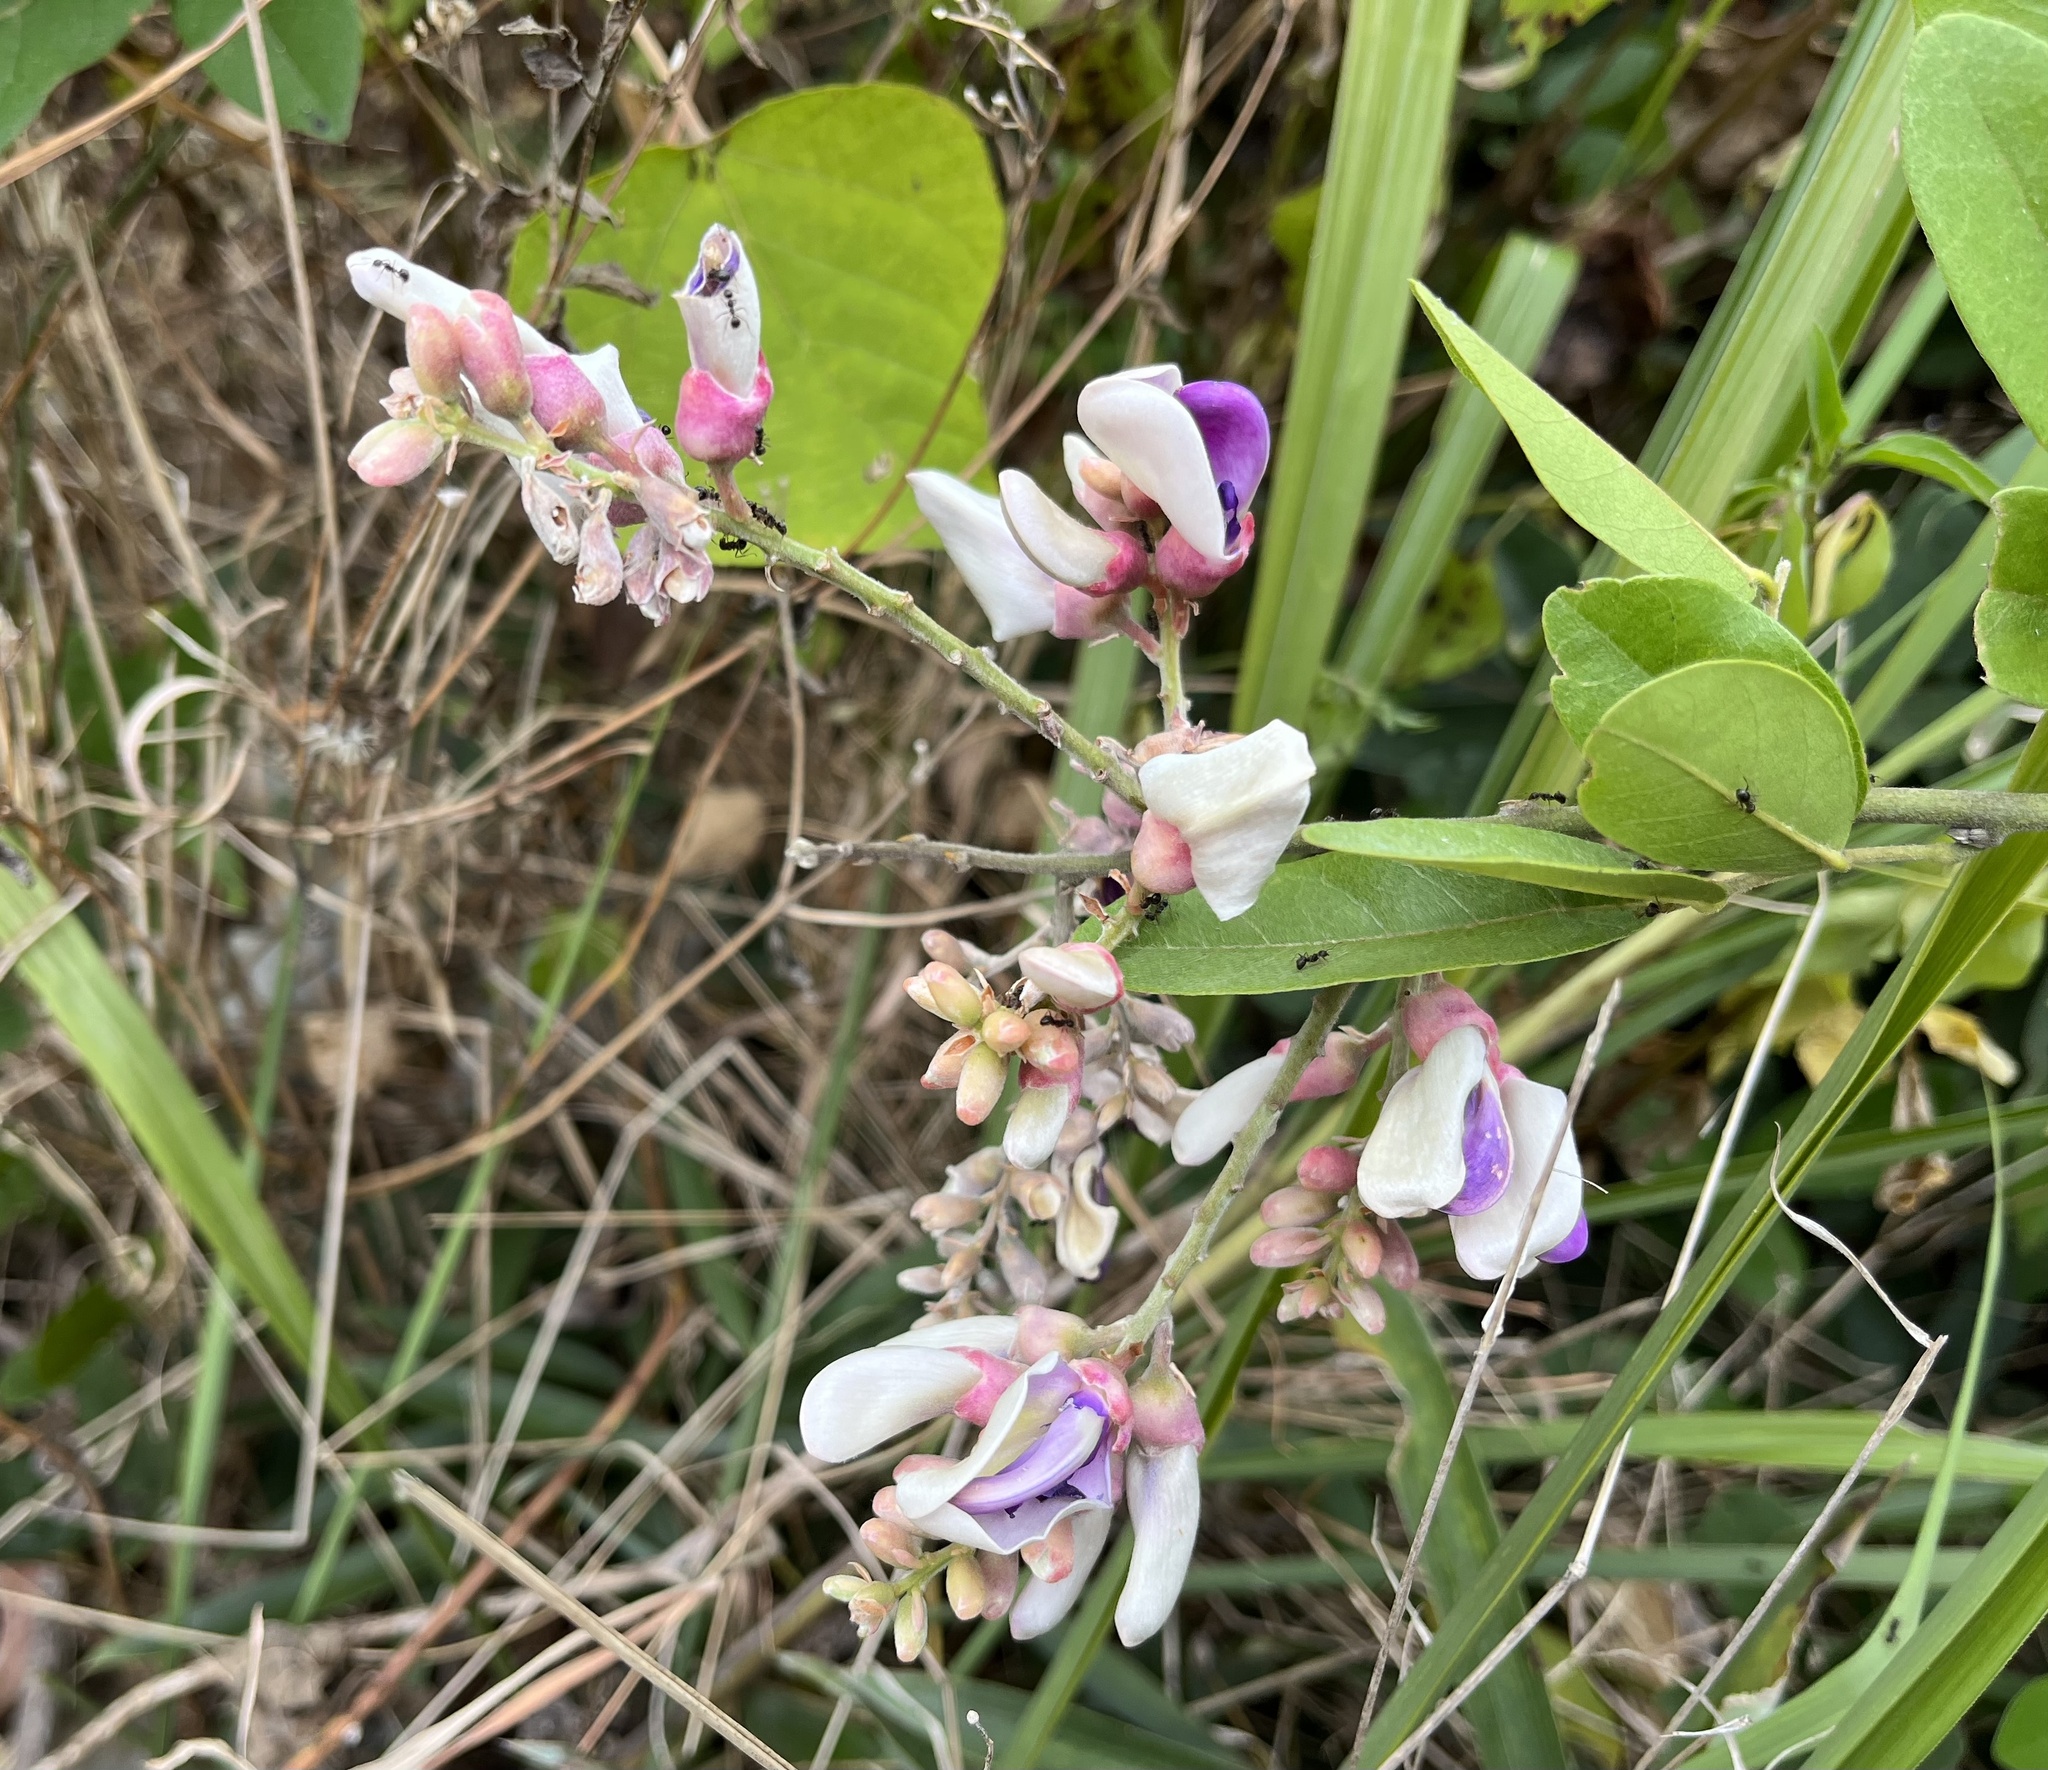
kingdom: Plantae
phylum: Tracheophyta
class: Magnoliopsida
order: Fabales
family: Fabaceae
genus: Callerya
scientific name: Callerya nitida
